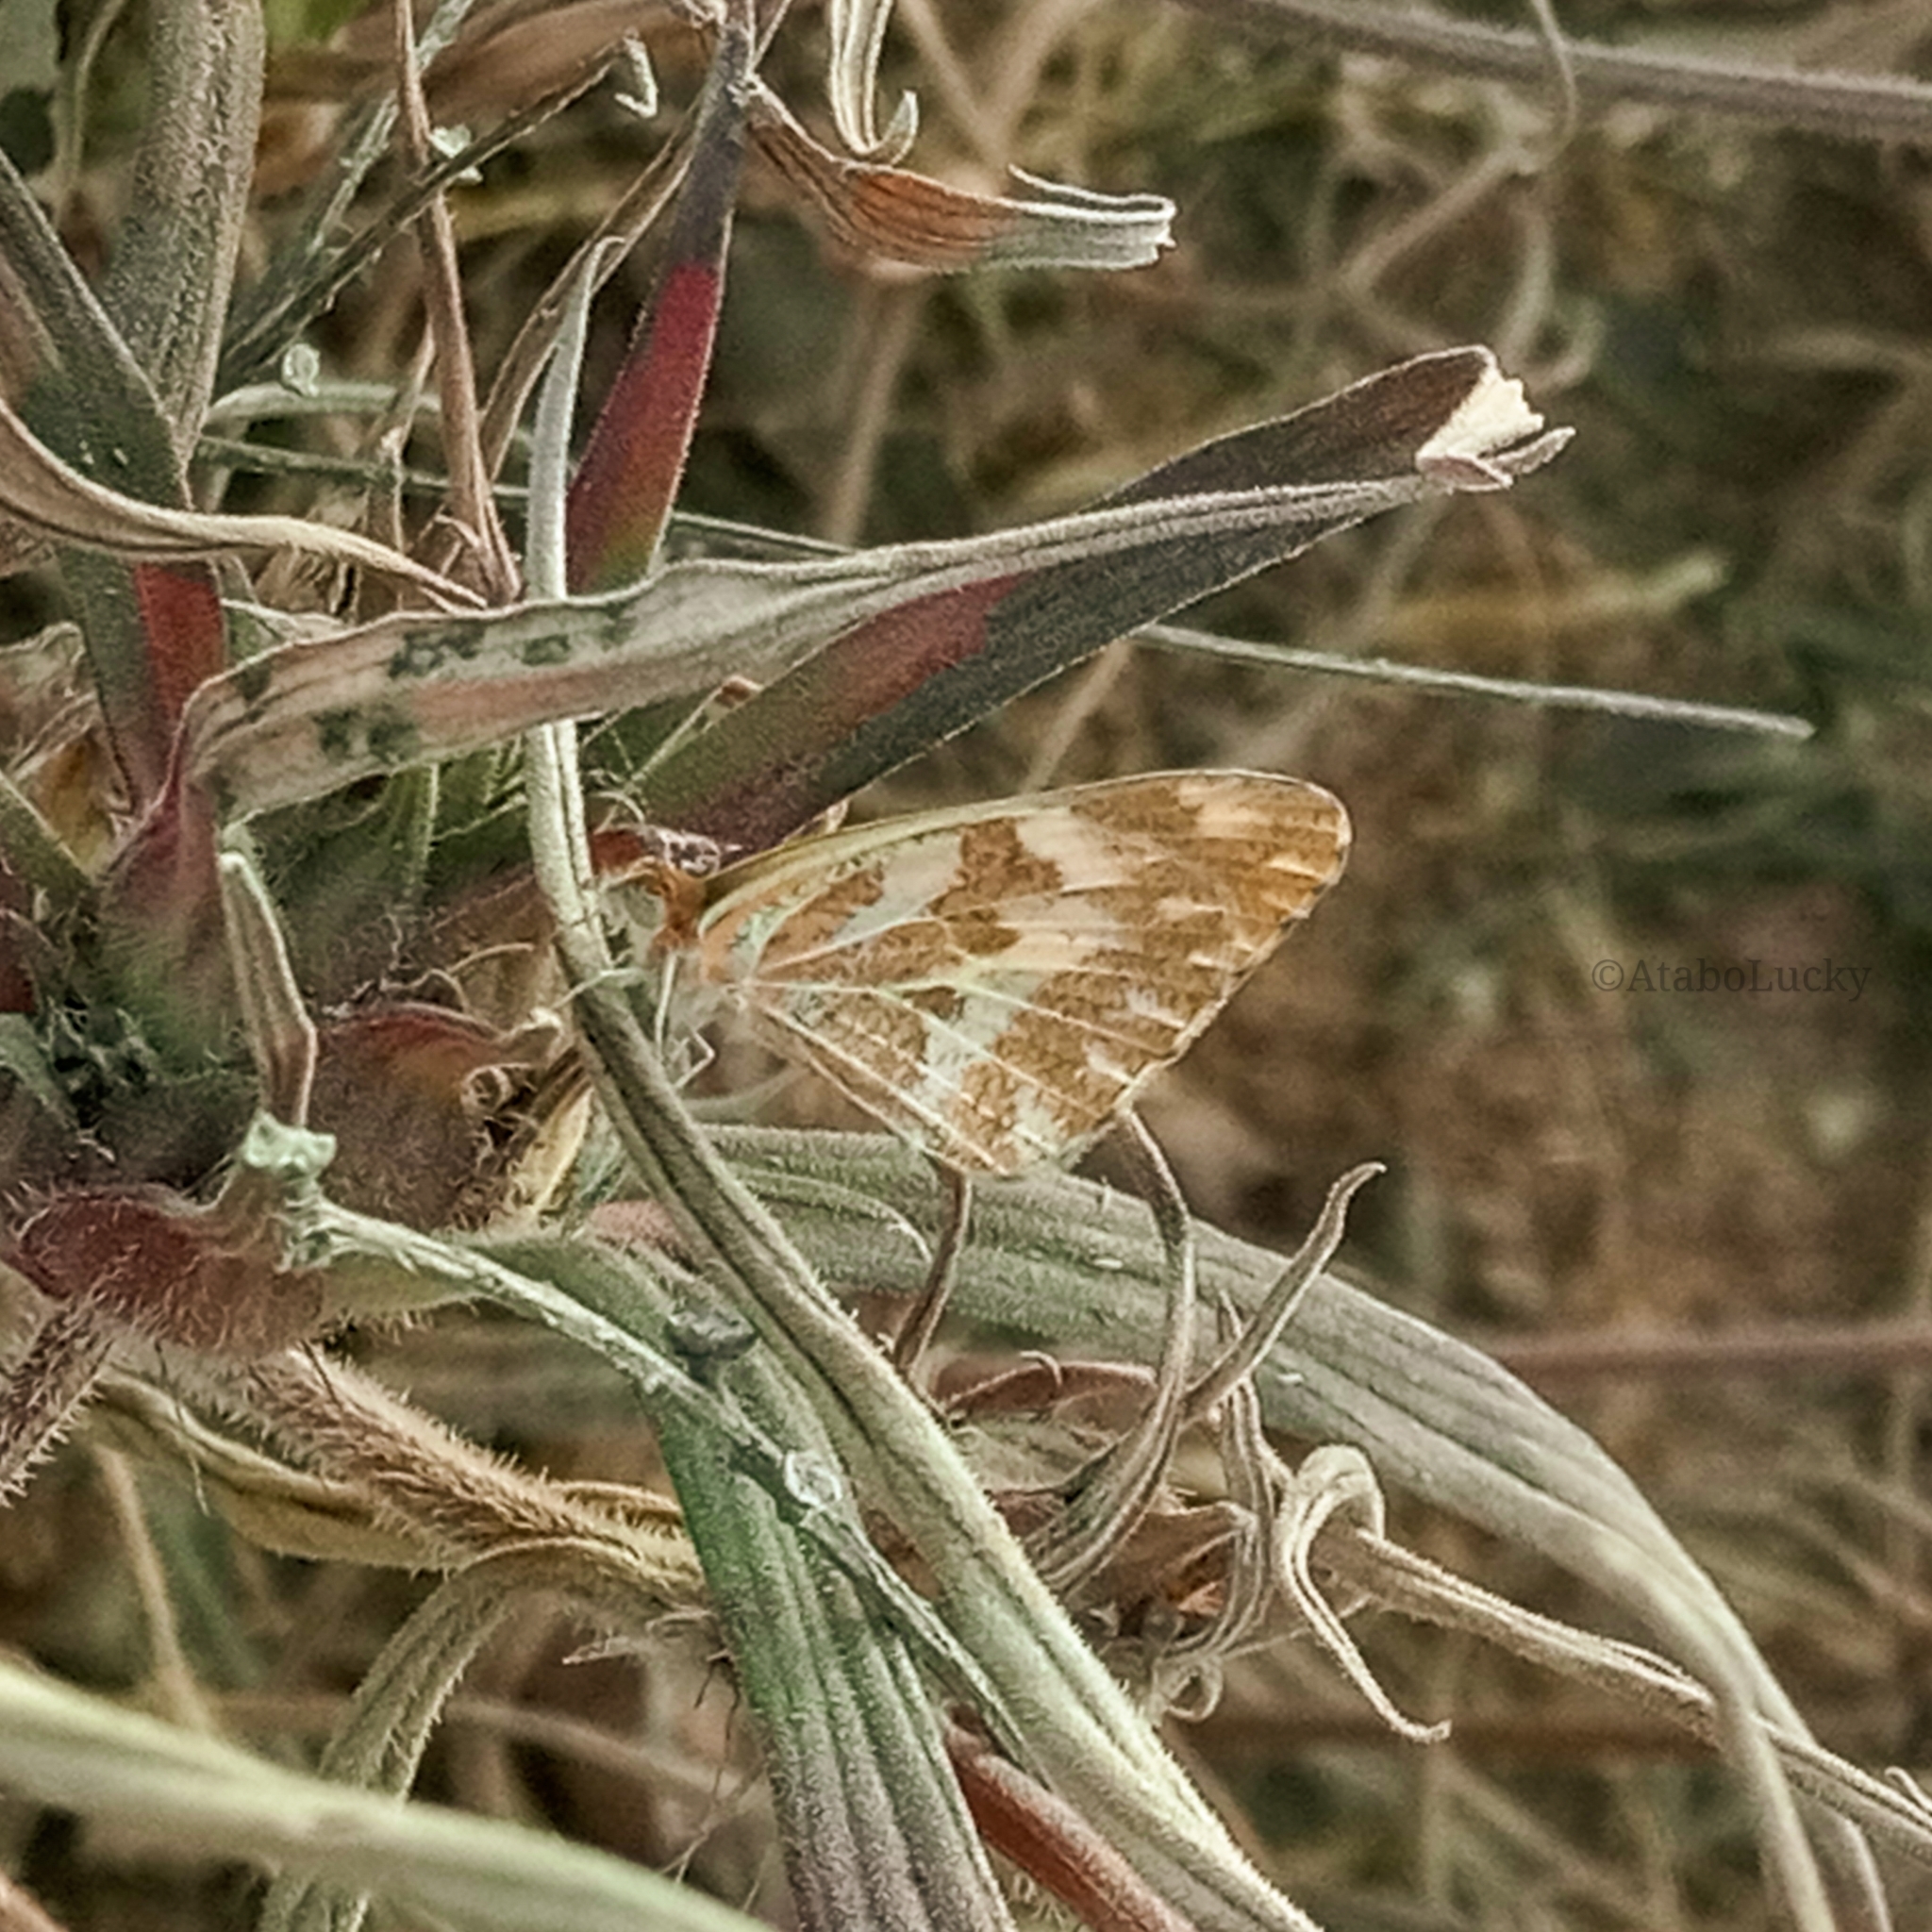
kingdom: Animalia
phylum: Arthropoda
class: Insecta
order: Lepidoptera
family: Pieridae
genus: Pinacopteryx
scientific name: Pinacopteryx eriphia
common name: Zebra white
